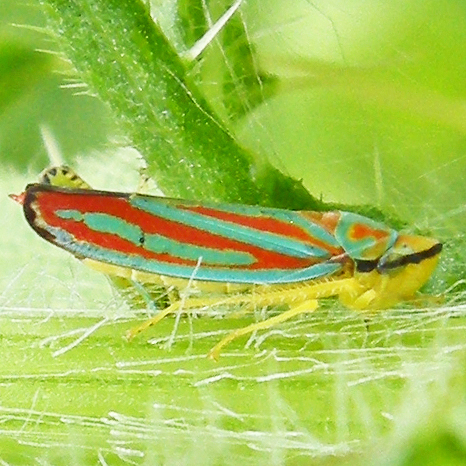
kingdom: Animalia
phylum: Arthropoda
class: Insecta
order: Hemiptera
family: Cicadellidae
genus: Graphocephala
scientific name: Graphocephala coccinea
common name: Candy-striped leafhopper
